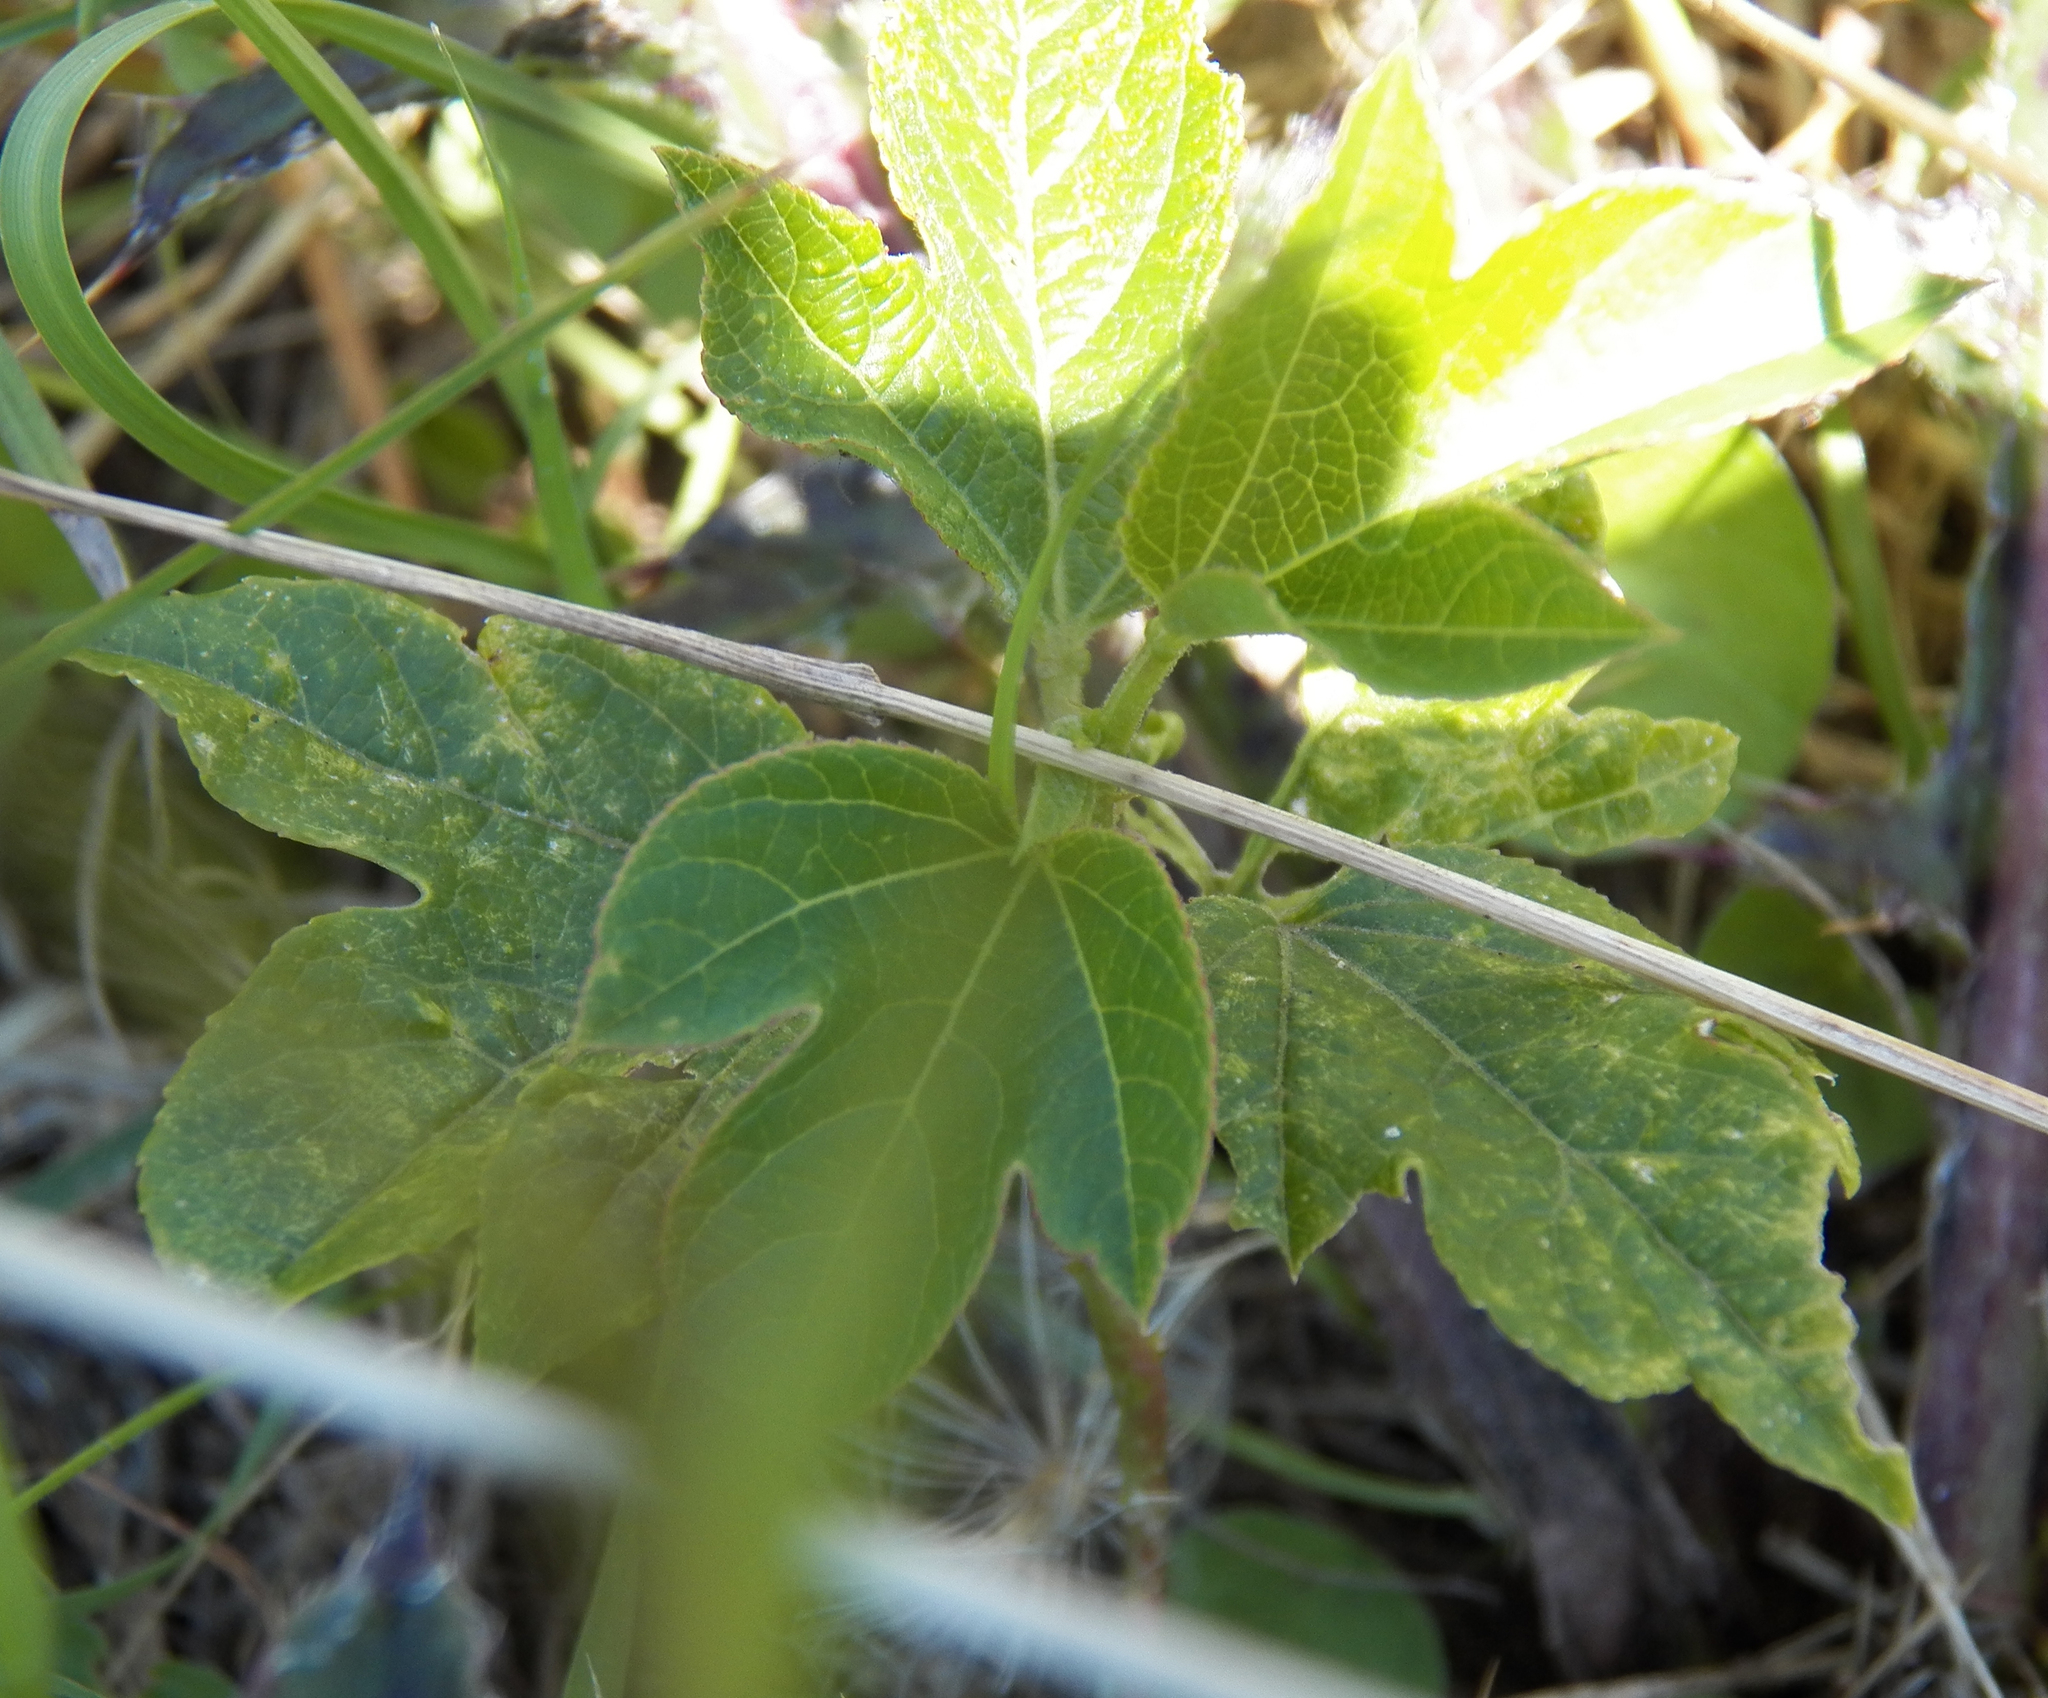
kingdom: Plantae
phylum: Tracheophyta
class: Magnoliopsida
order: Malpighiales
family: Passifloraceae
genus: Passiflora
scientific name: Passiflora incarnata
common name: Apricot-vine
